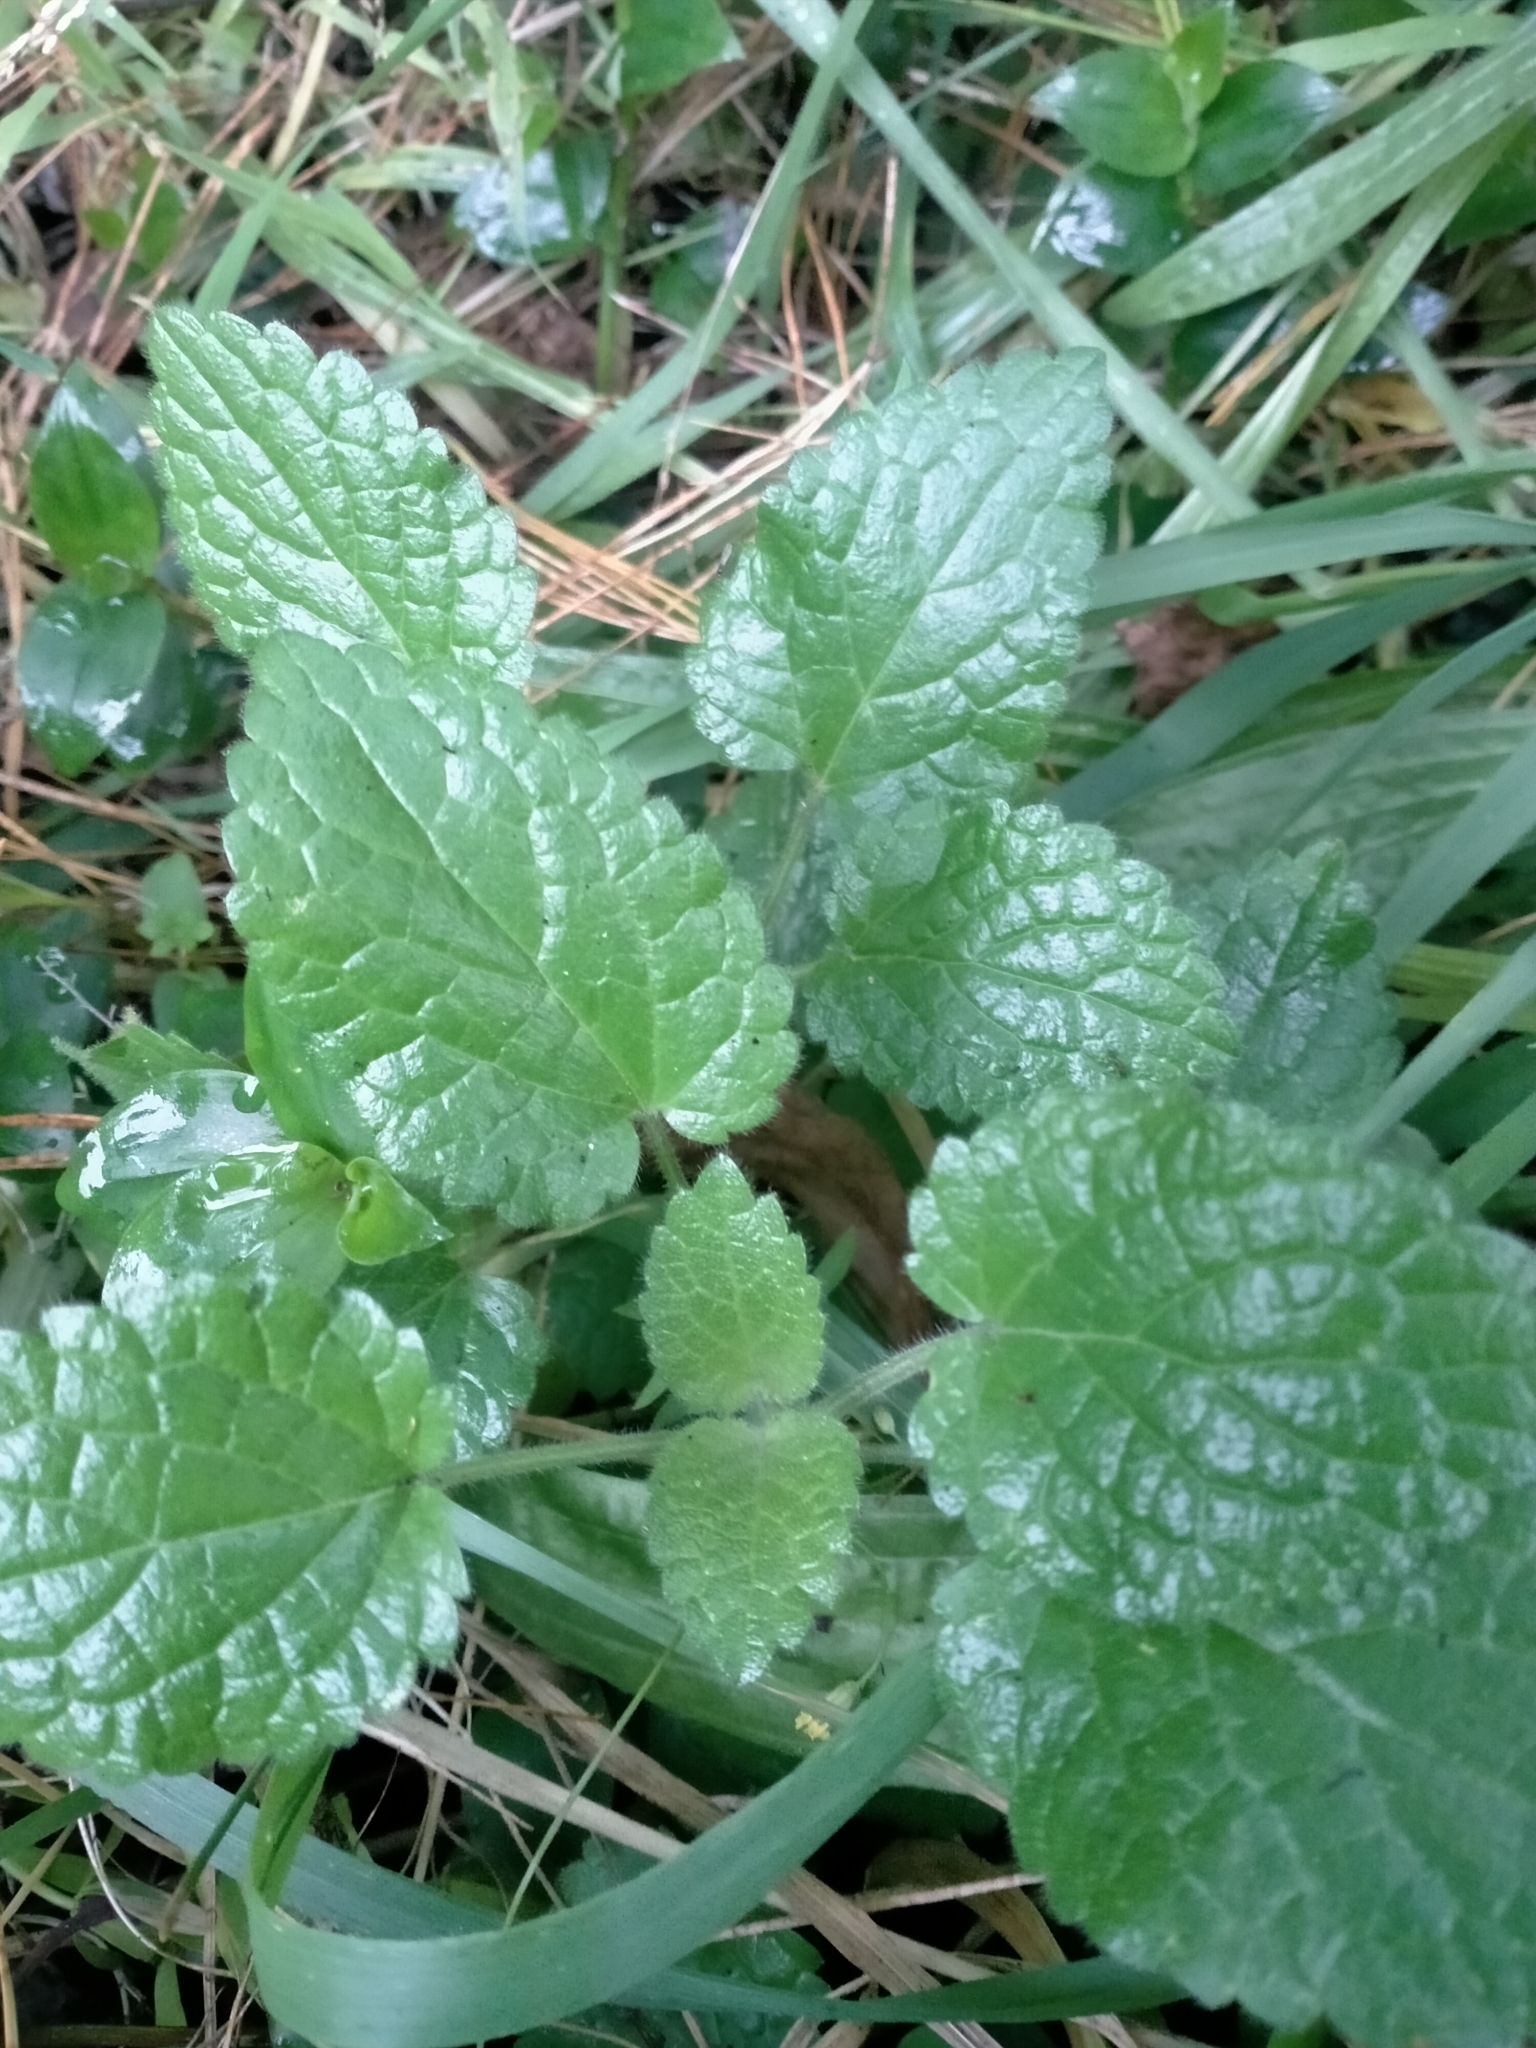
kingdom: Plantae
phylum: Tracheophyta
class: Magnoliopsida
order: Lamiales
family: Lamiaceae
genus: Stachys
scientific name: Stachys sylvatica
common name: Hedge woundwort
